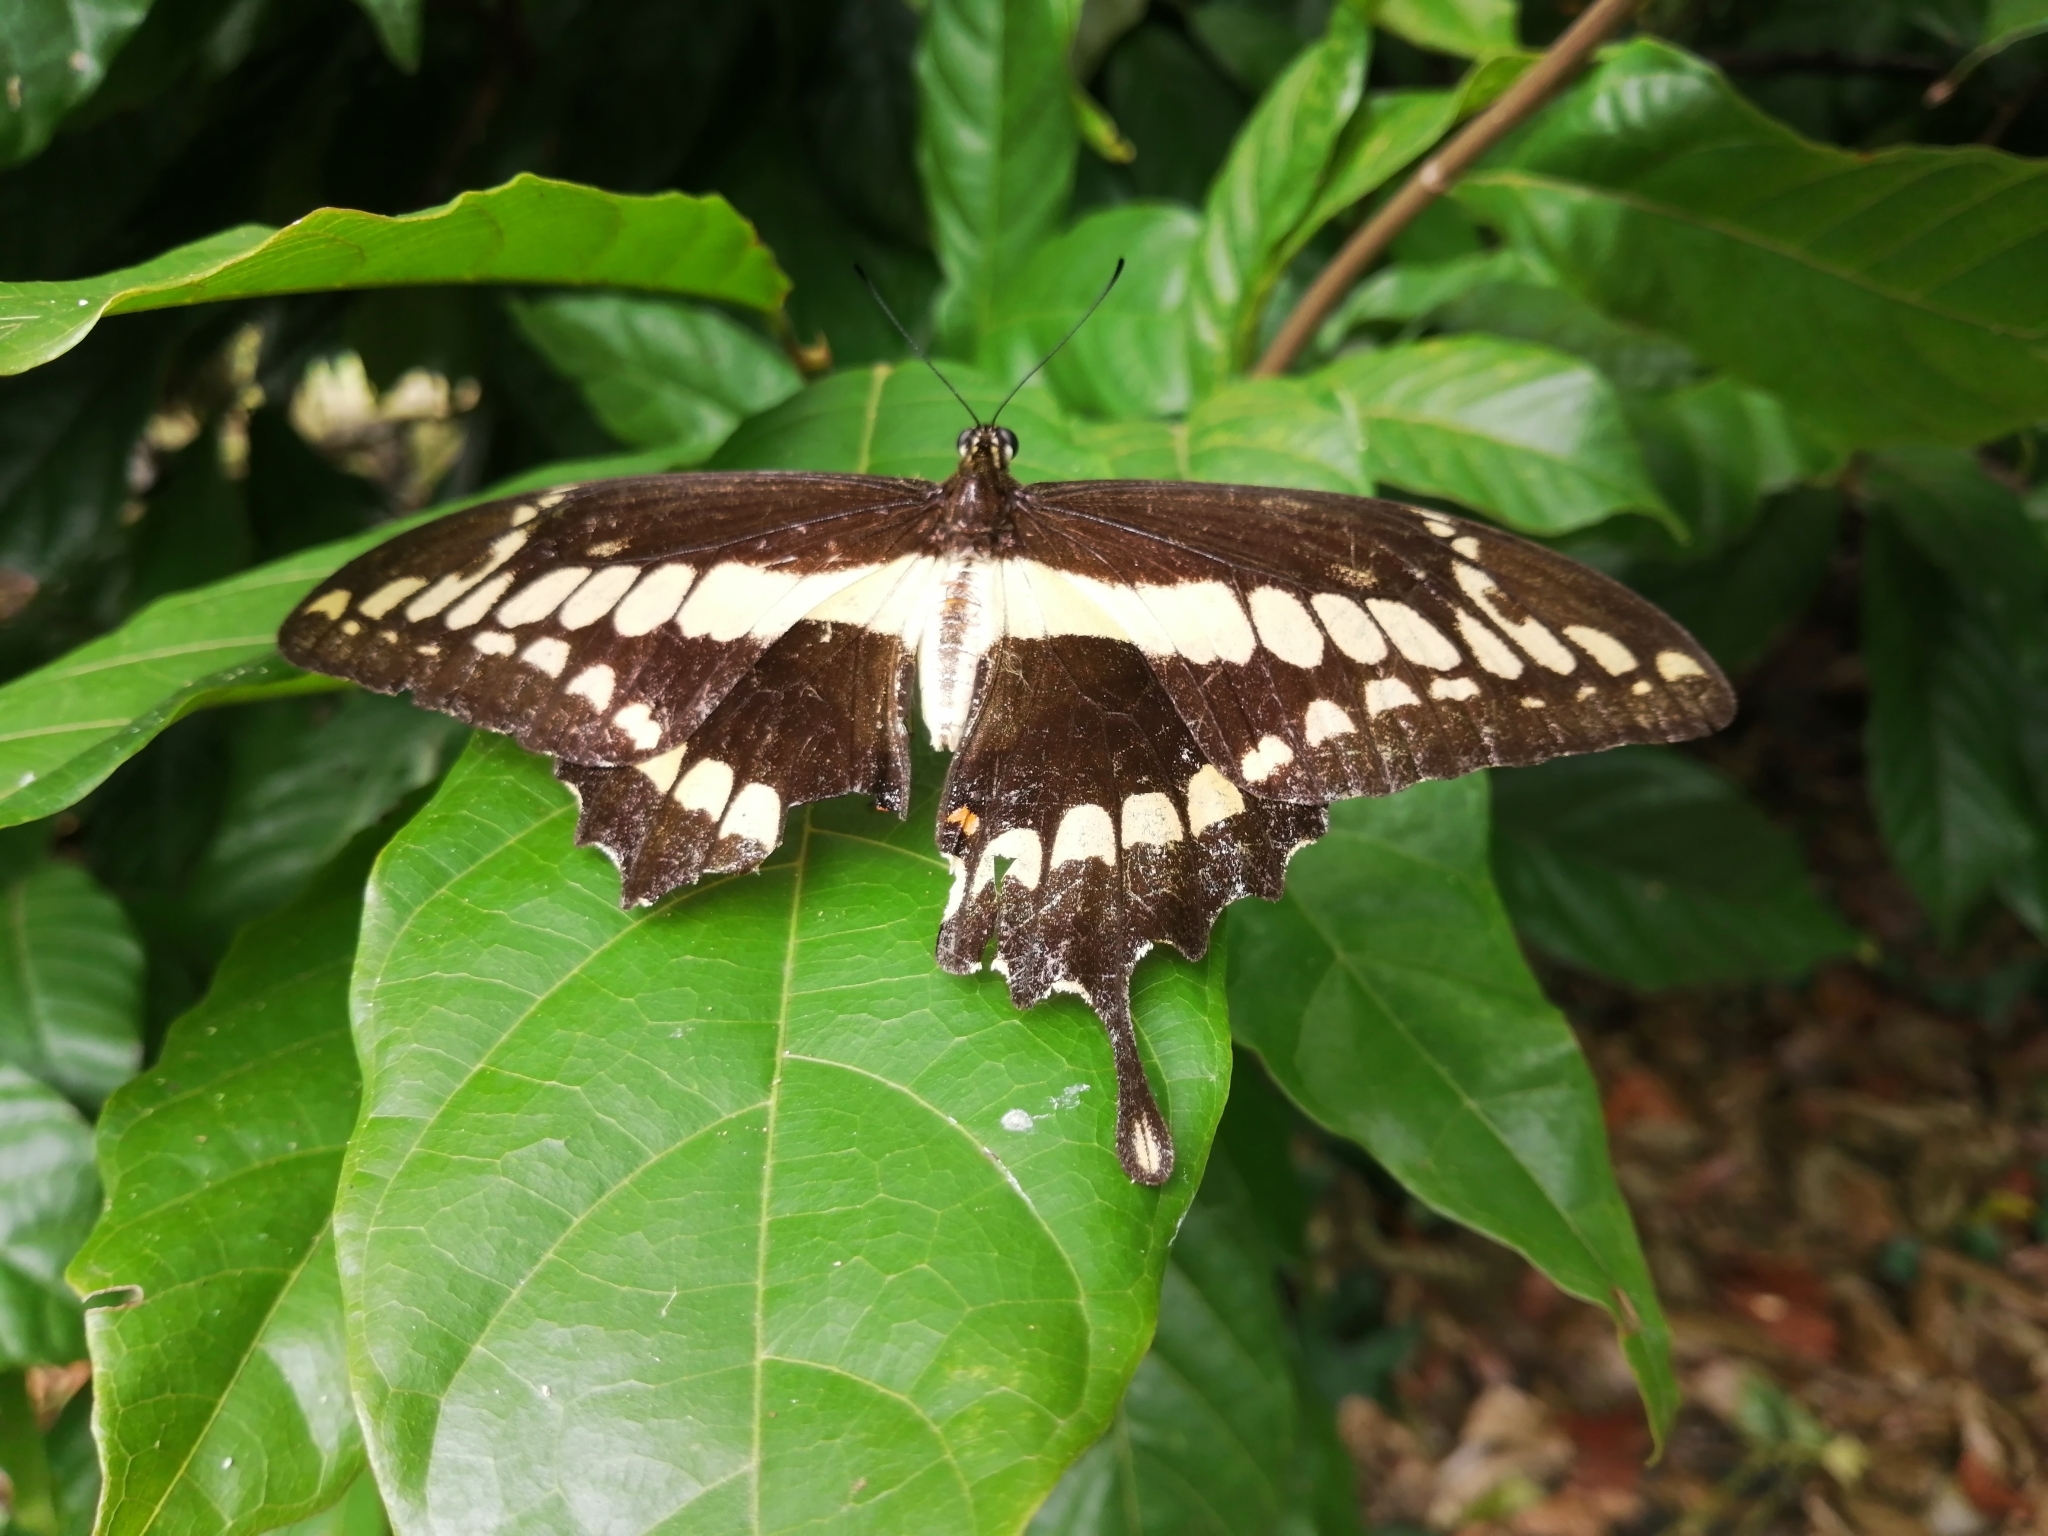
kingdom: Animalia
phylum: Arthropoda
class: Insecta
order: Lepidoptera
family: Papilionidae
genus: Papilio
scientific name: Papilio thoas
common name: King swallowtail
